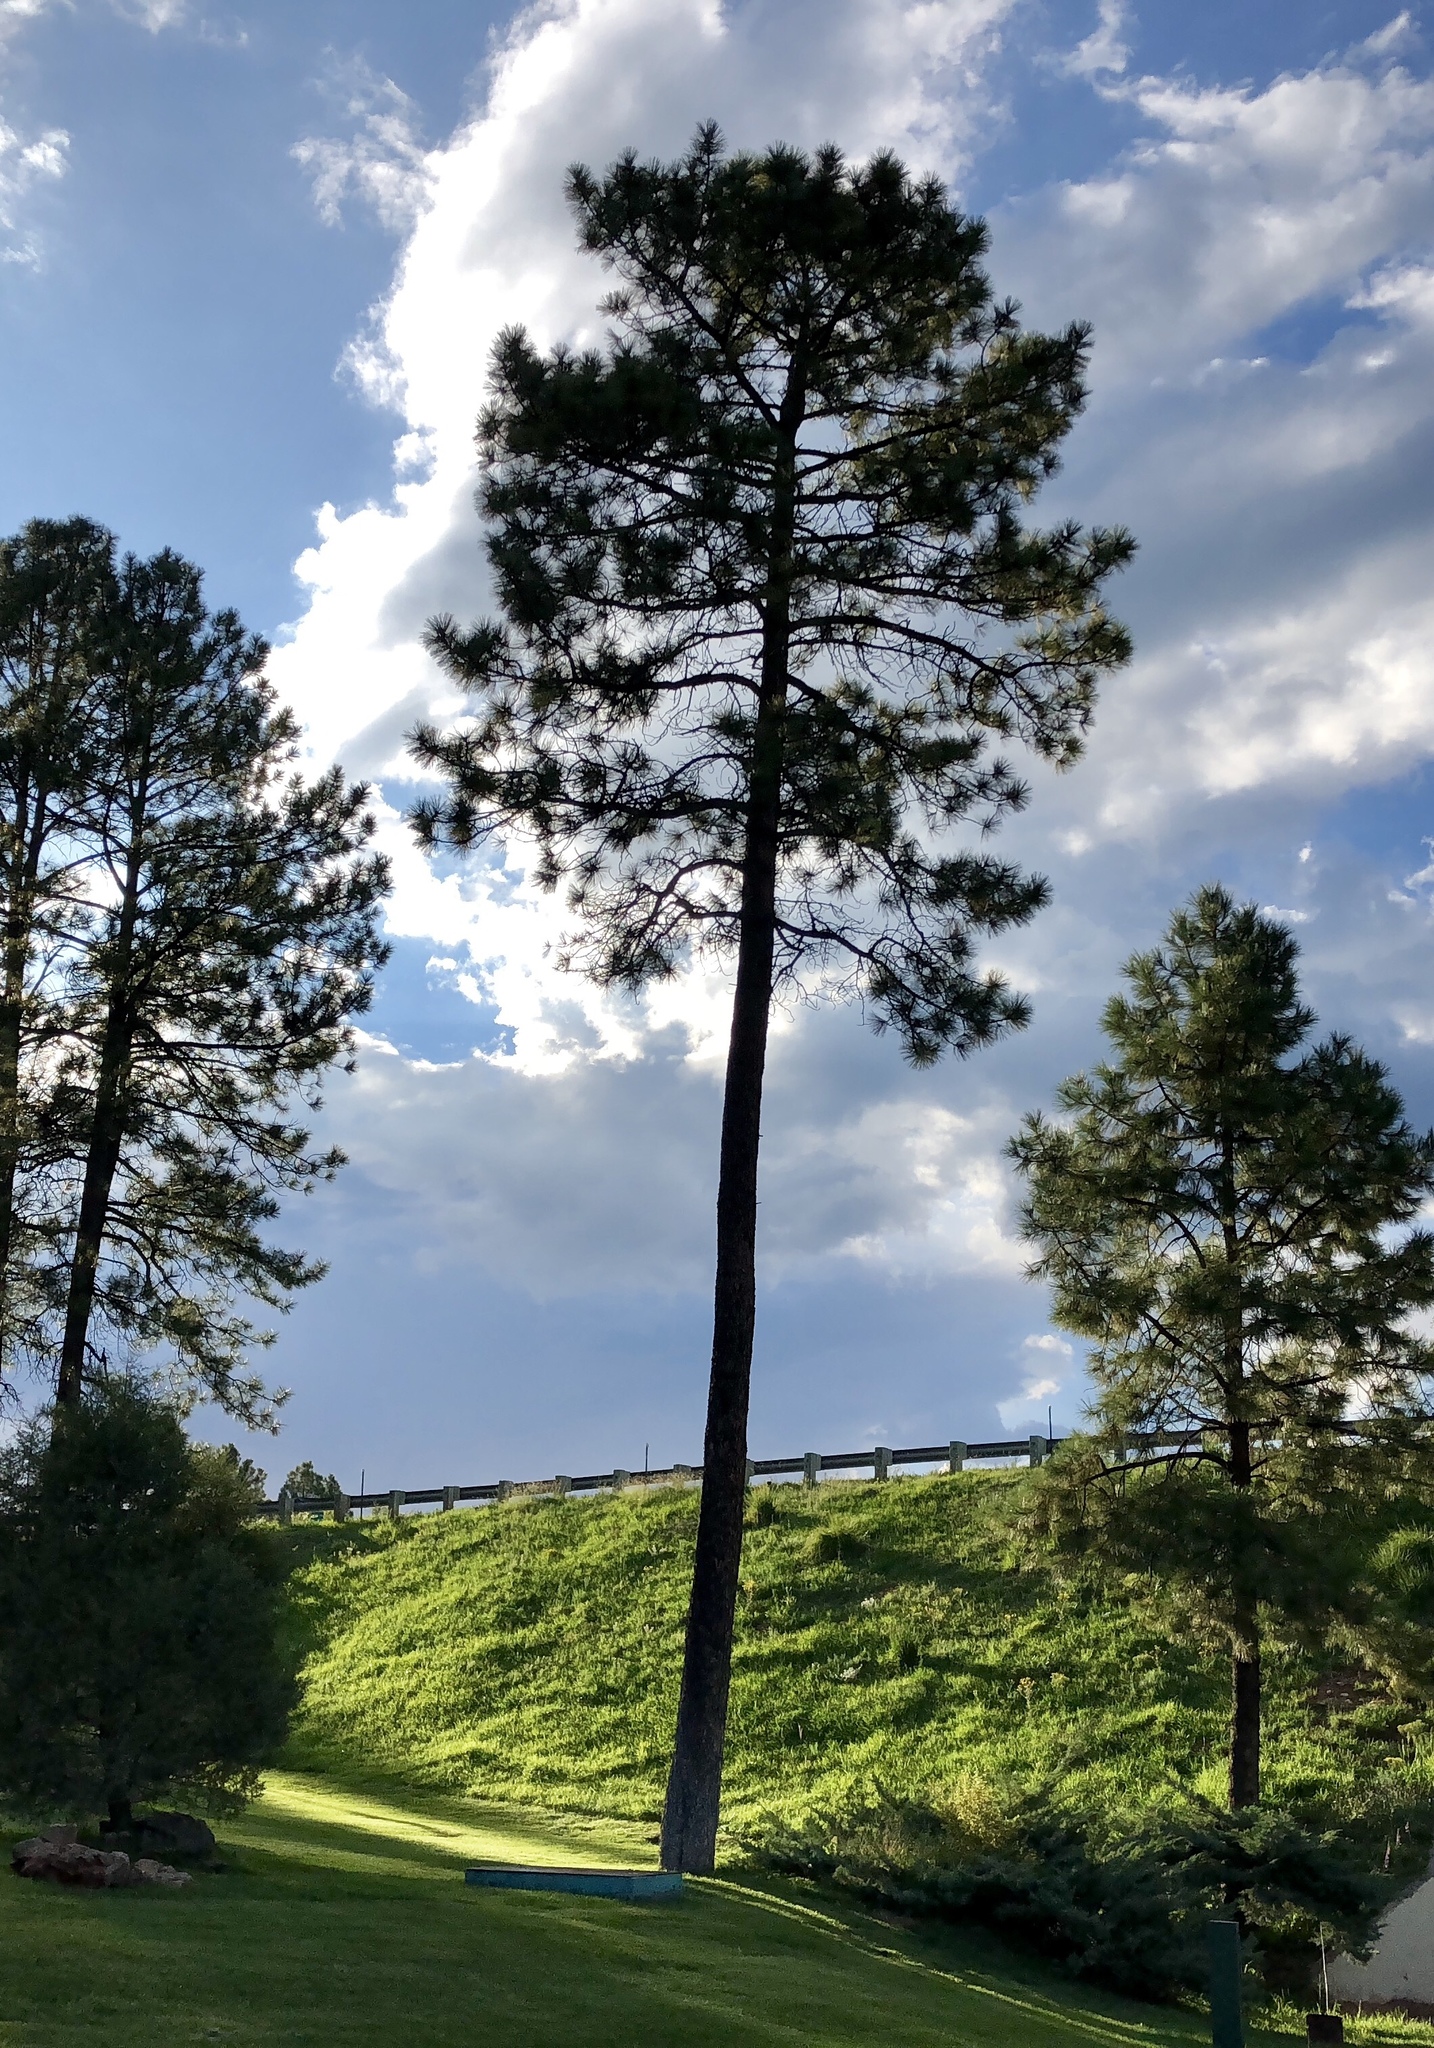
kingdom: Plantae
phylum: Tracheophyta
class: Pinopsida
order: Pinales
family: Pinaceae
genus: Pinus
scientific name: Pinus ponderosa
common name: Western yellow-pine
